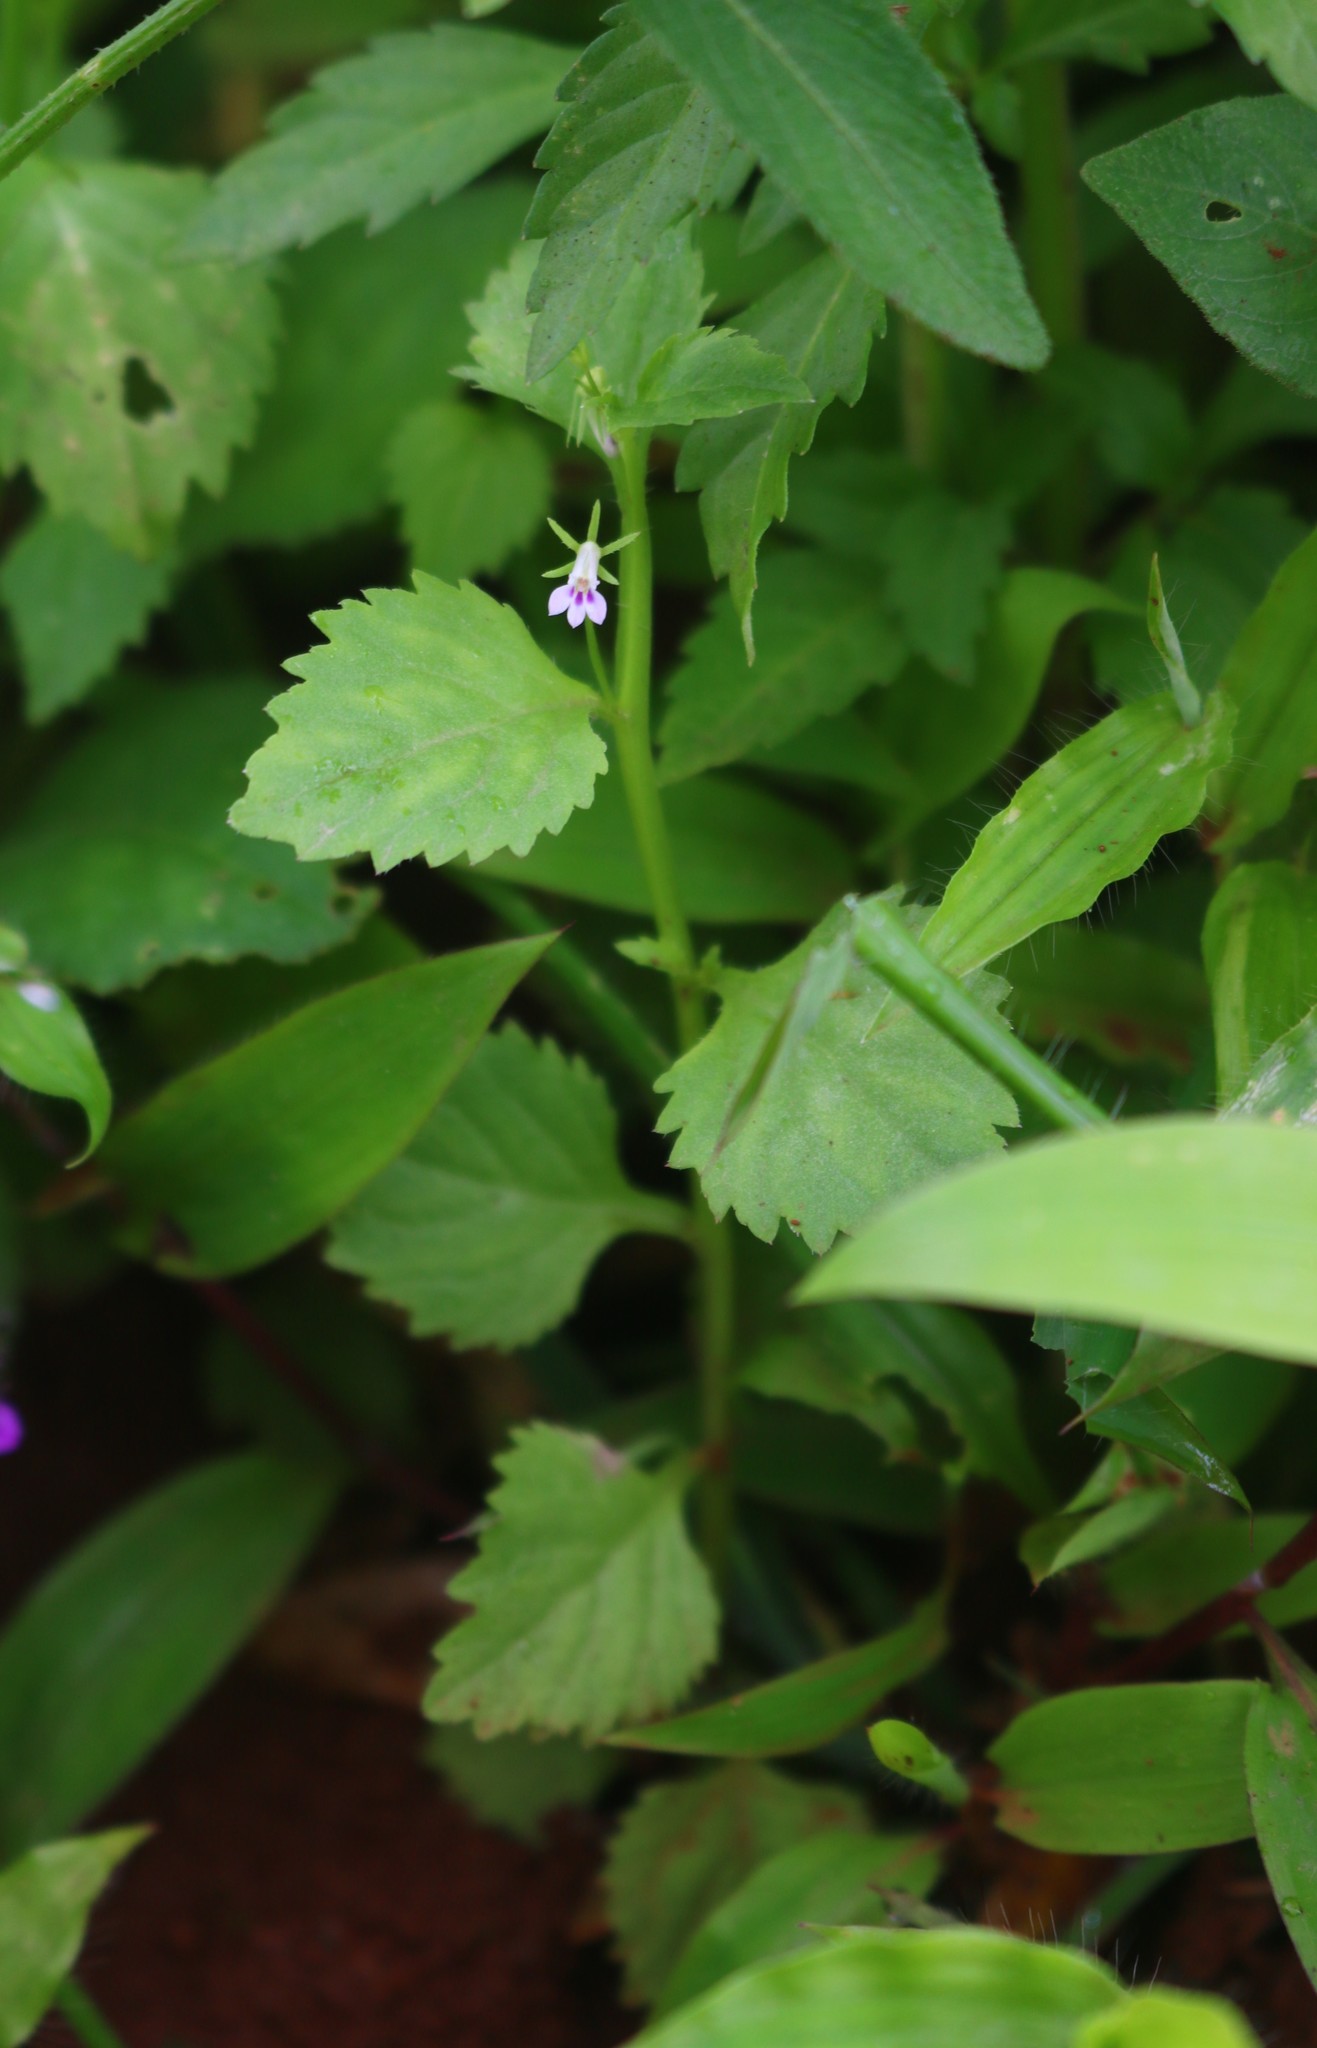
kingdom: Plantae
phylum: Tracheophyta
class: Magnoliopsida
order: Asterales
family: Campanulaceae
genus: Lobelia
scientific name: Lobelia heyneana
